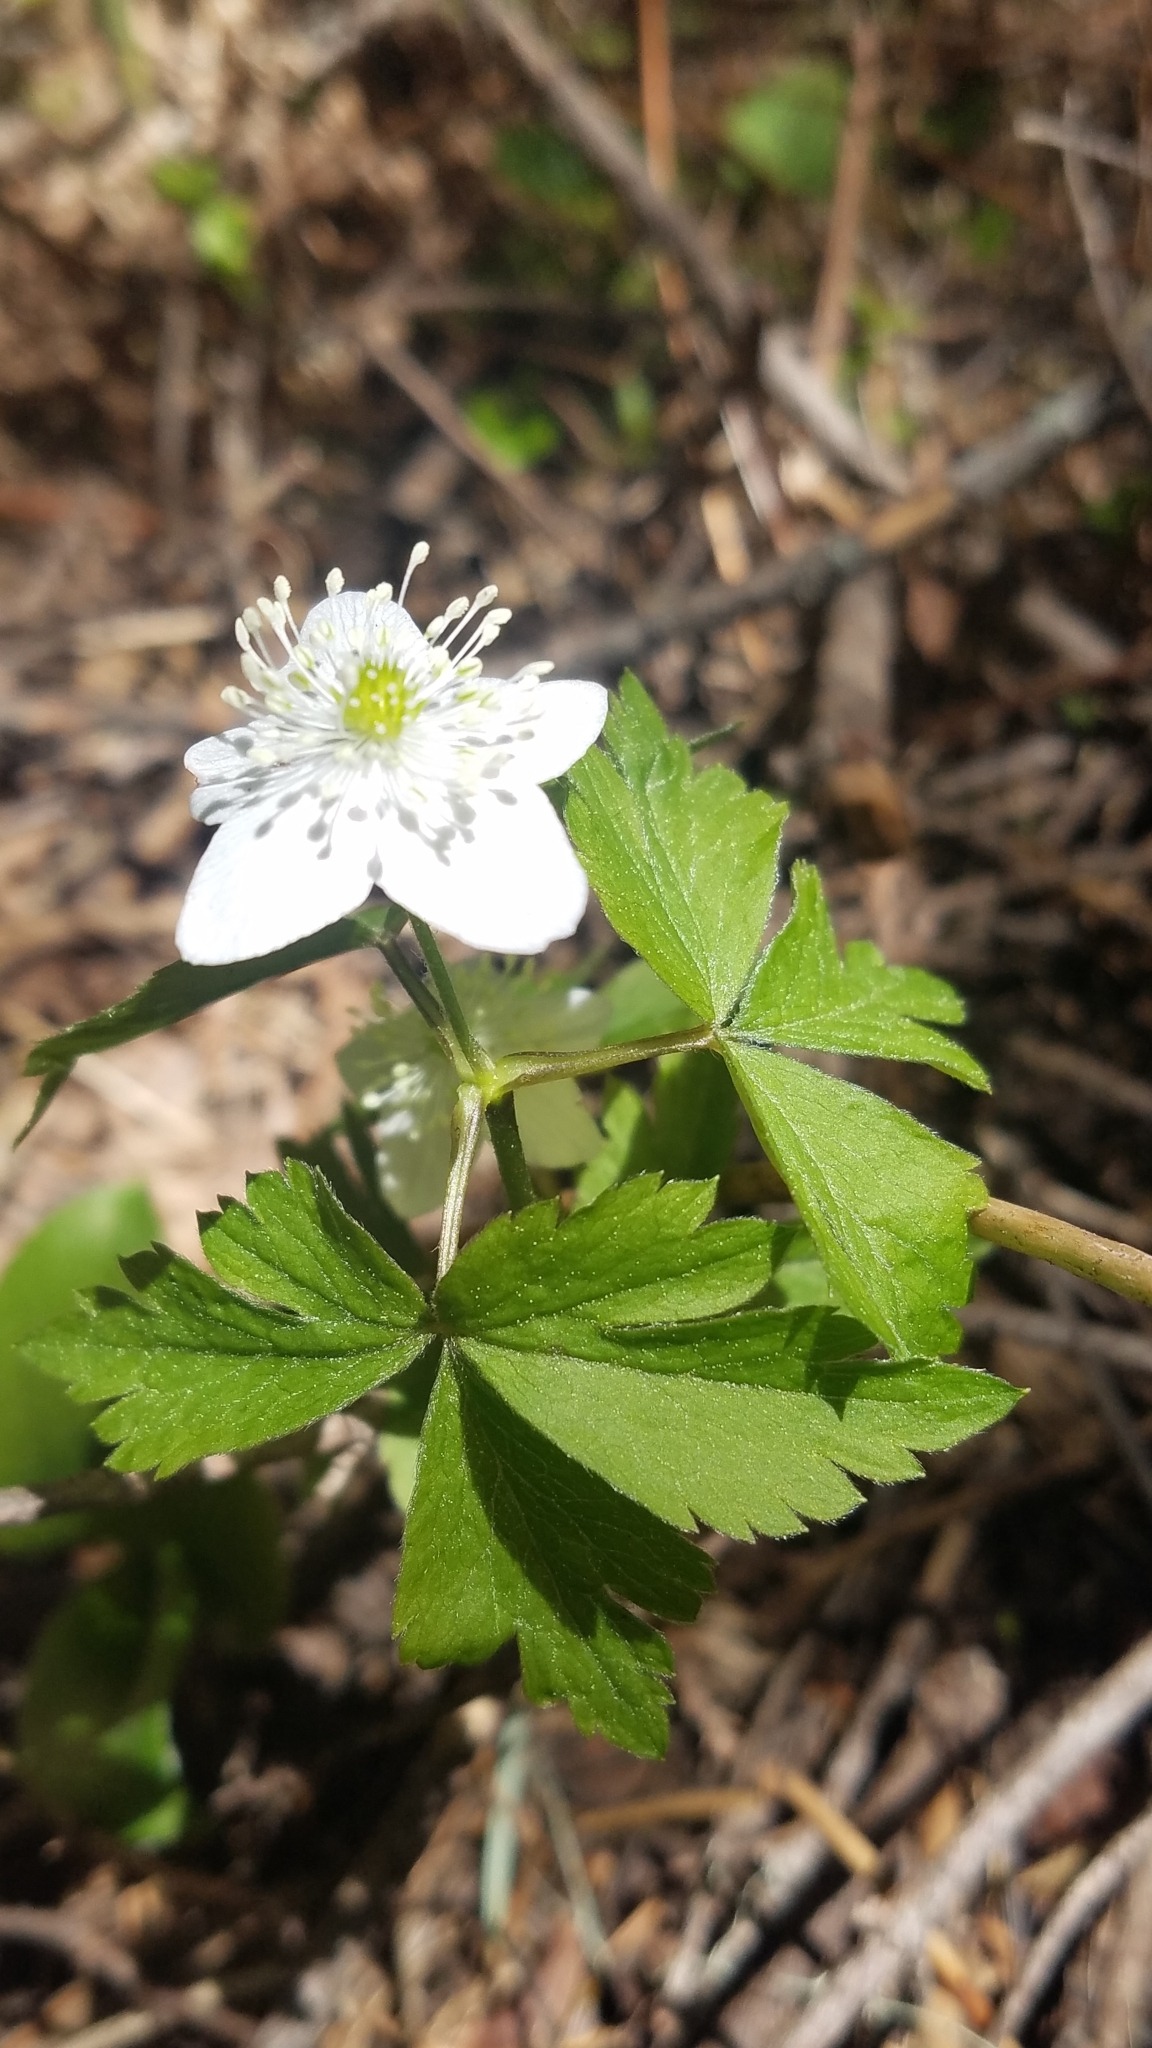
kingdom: Plantae
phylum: Tracheophyta
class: Magnoliopsida
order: Ranunculales
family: Ranunculaceae
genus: Anemone
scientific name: Anemone piperi
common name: Piper's anemone
